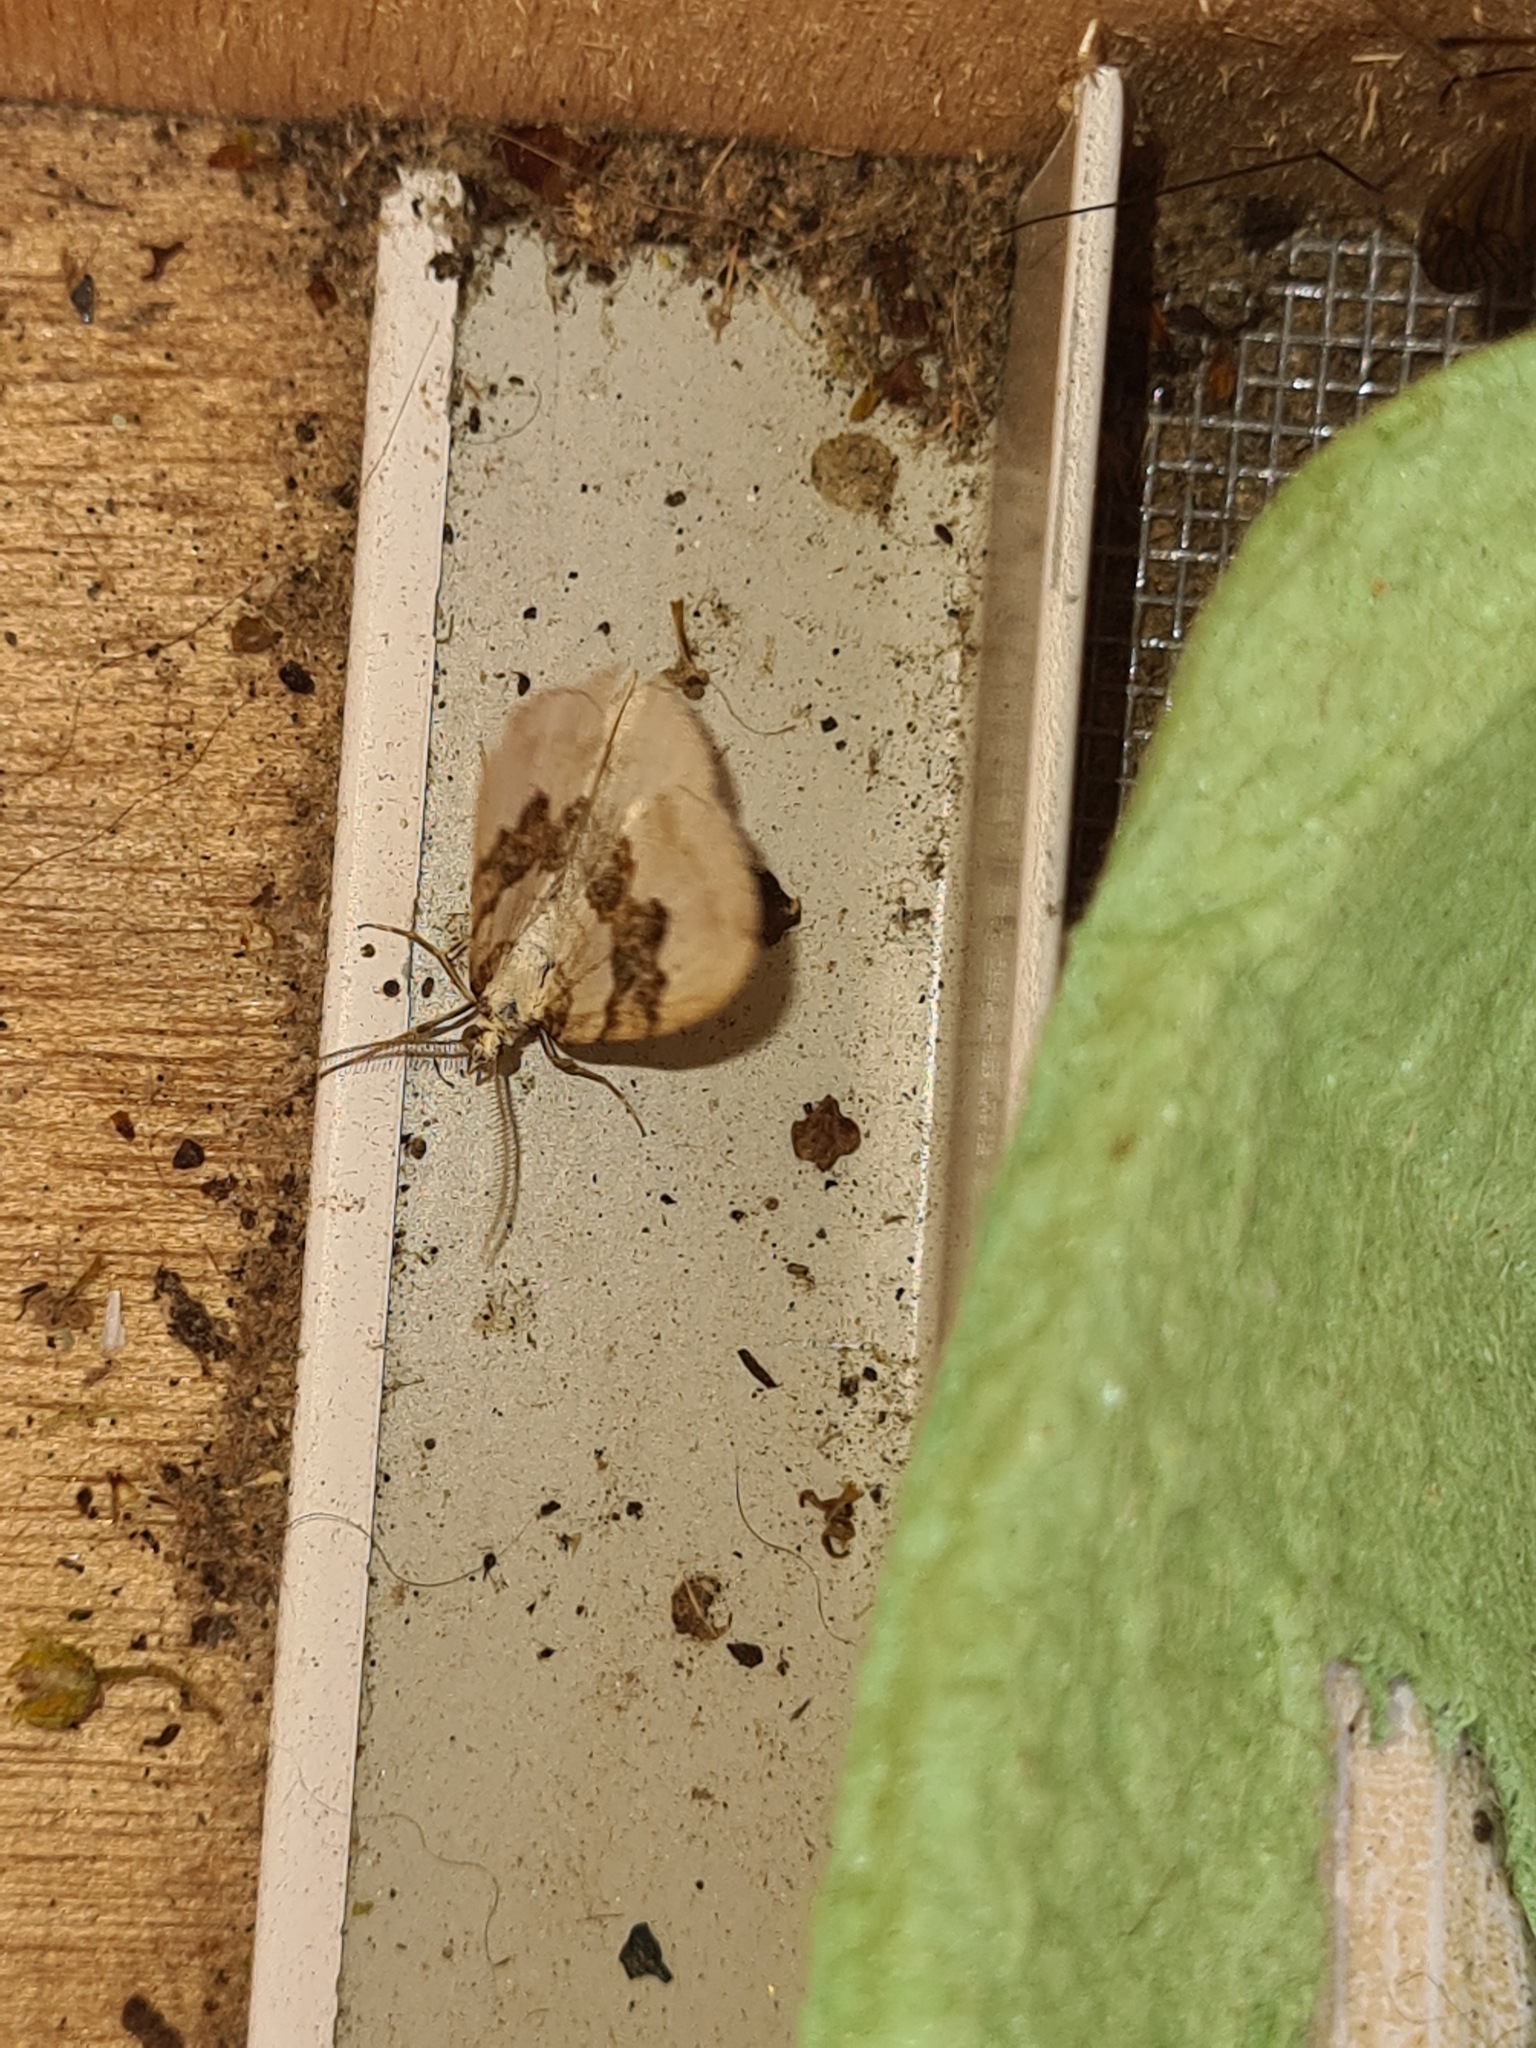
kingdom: Animalia
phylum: Arthropoda
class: Insecta
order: Lepidoptera
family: Geometridae
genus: Xanthorhoe
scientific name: Xanthorhoe montanata
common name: Silver-ground carpet
